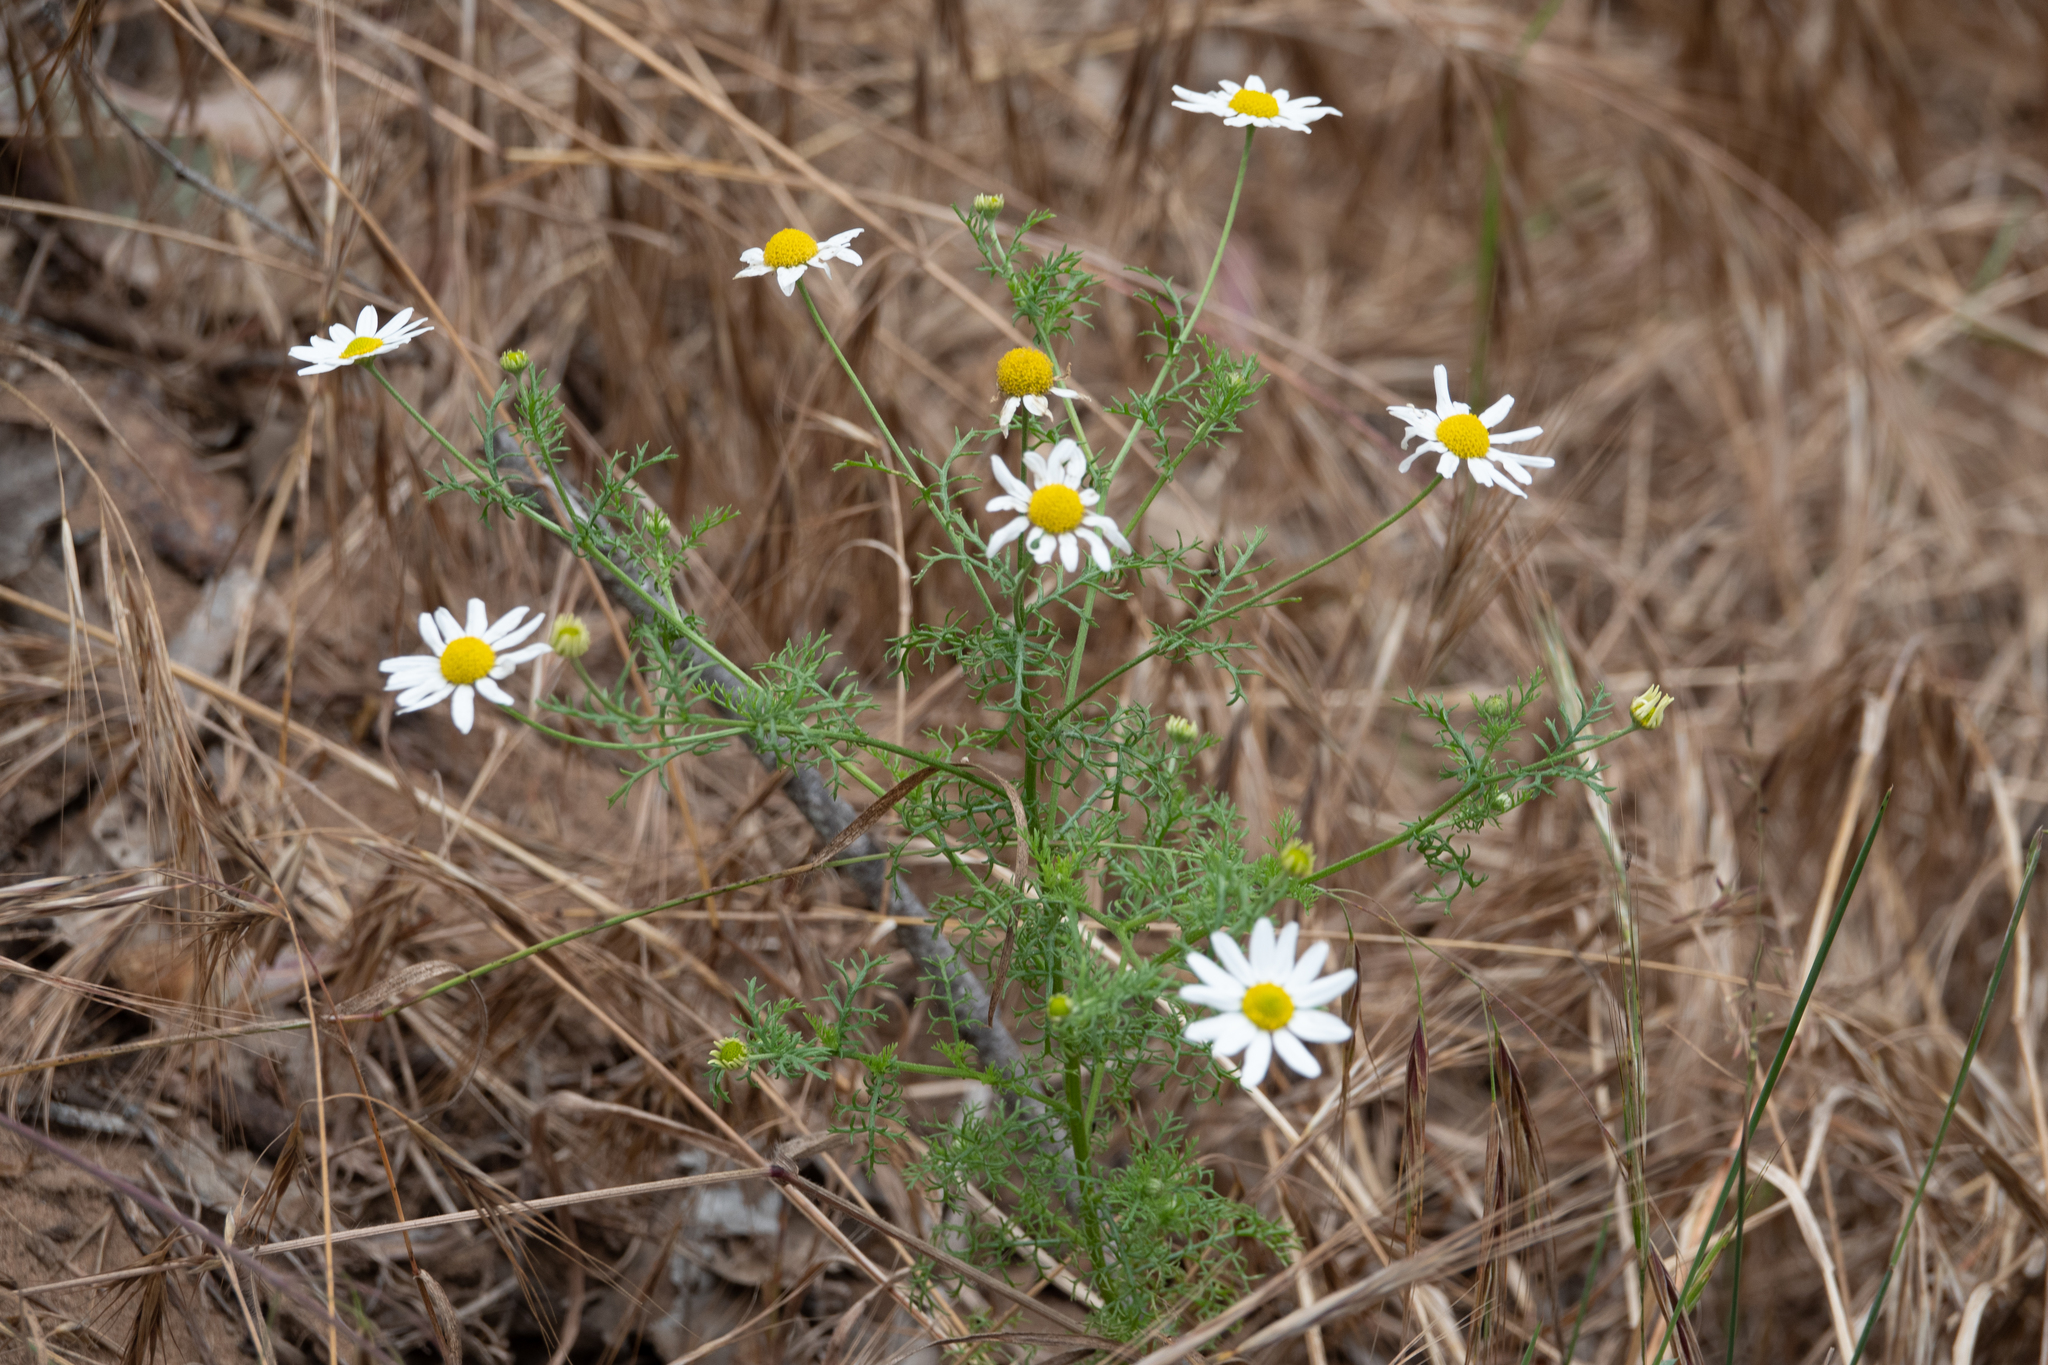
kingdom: Plantae
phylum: Tracheophyta
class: Magnoliopsida
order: Asterales
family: Asteraceae
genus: Anthemis
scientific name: Anthemis cotula
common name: Stinking chamomile
